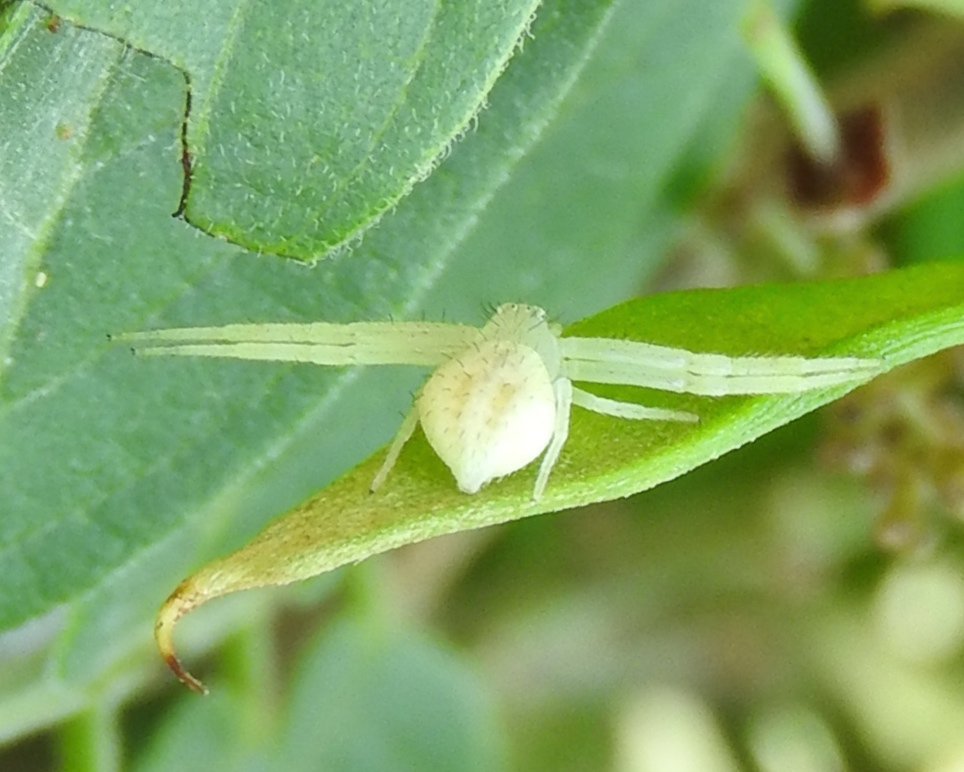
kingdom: Animalia
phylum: Arthropoda
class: Arachnida
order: Araneae
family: Thomisidae
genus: Mecaphesa
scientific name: Mecaphesa
